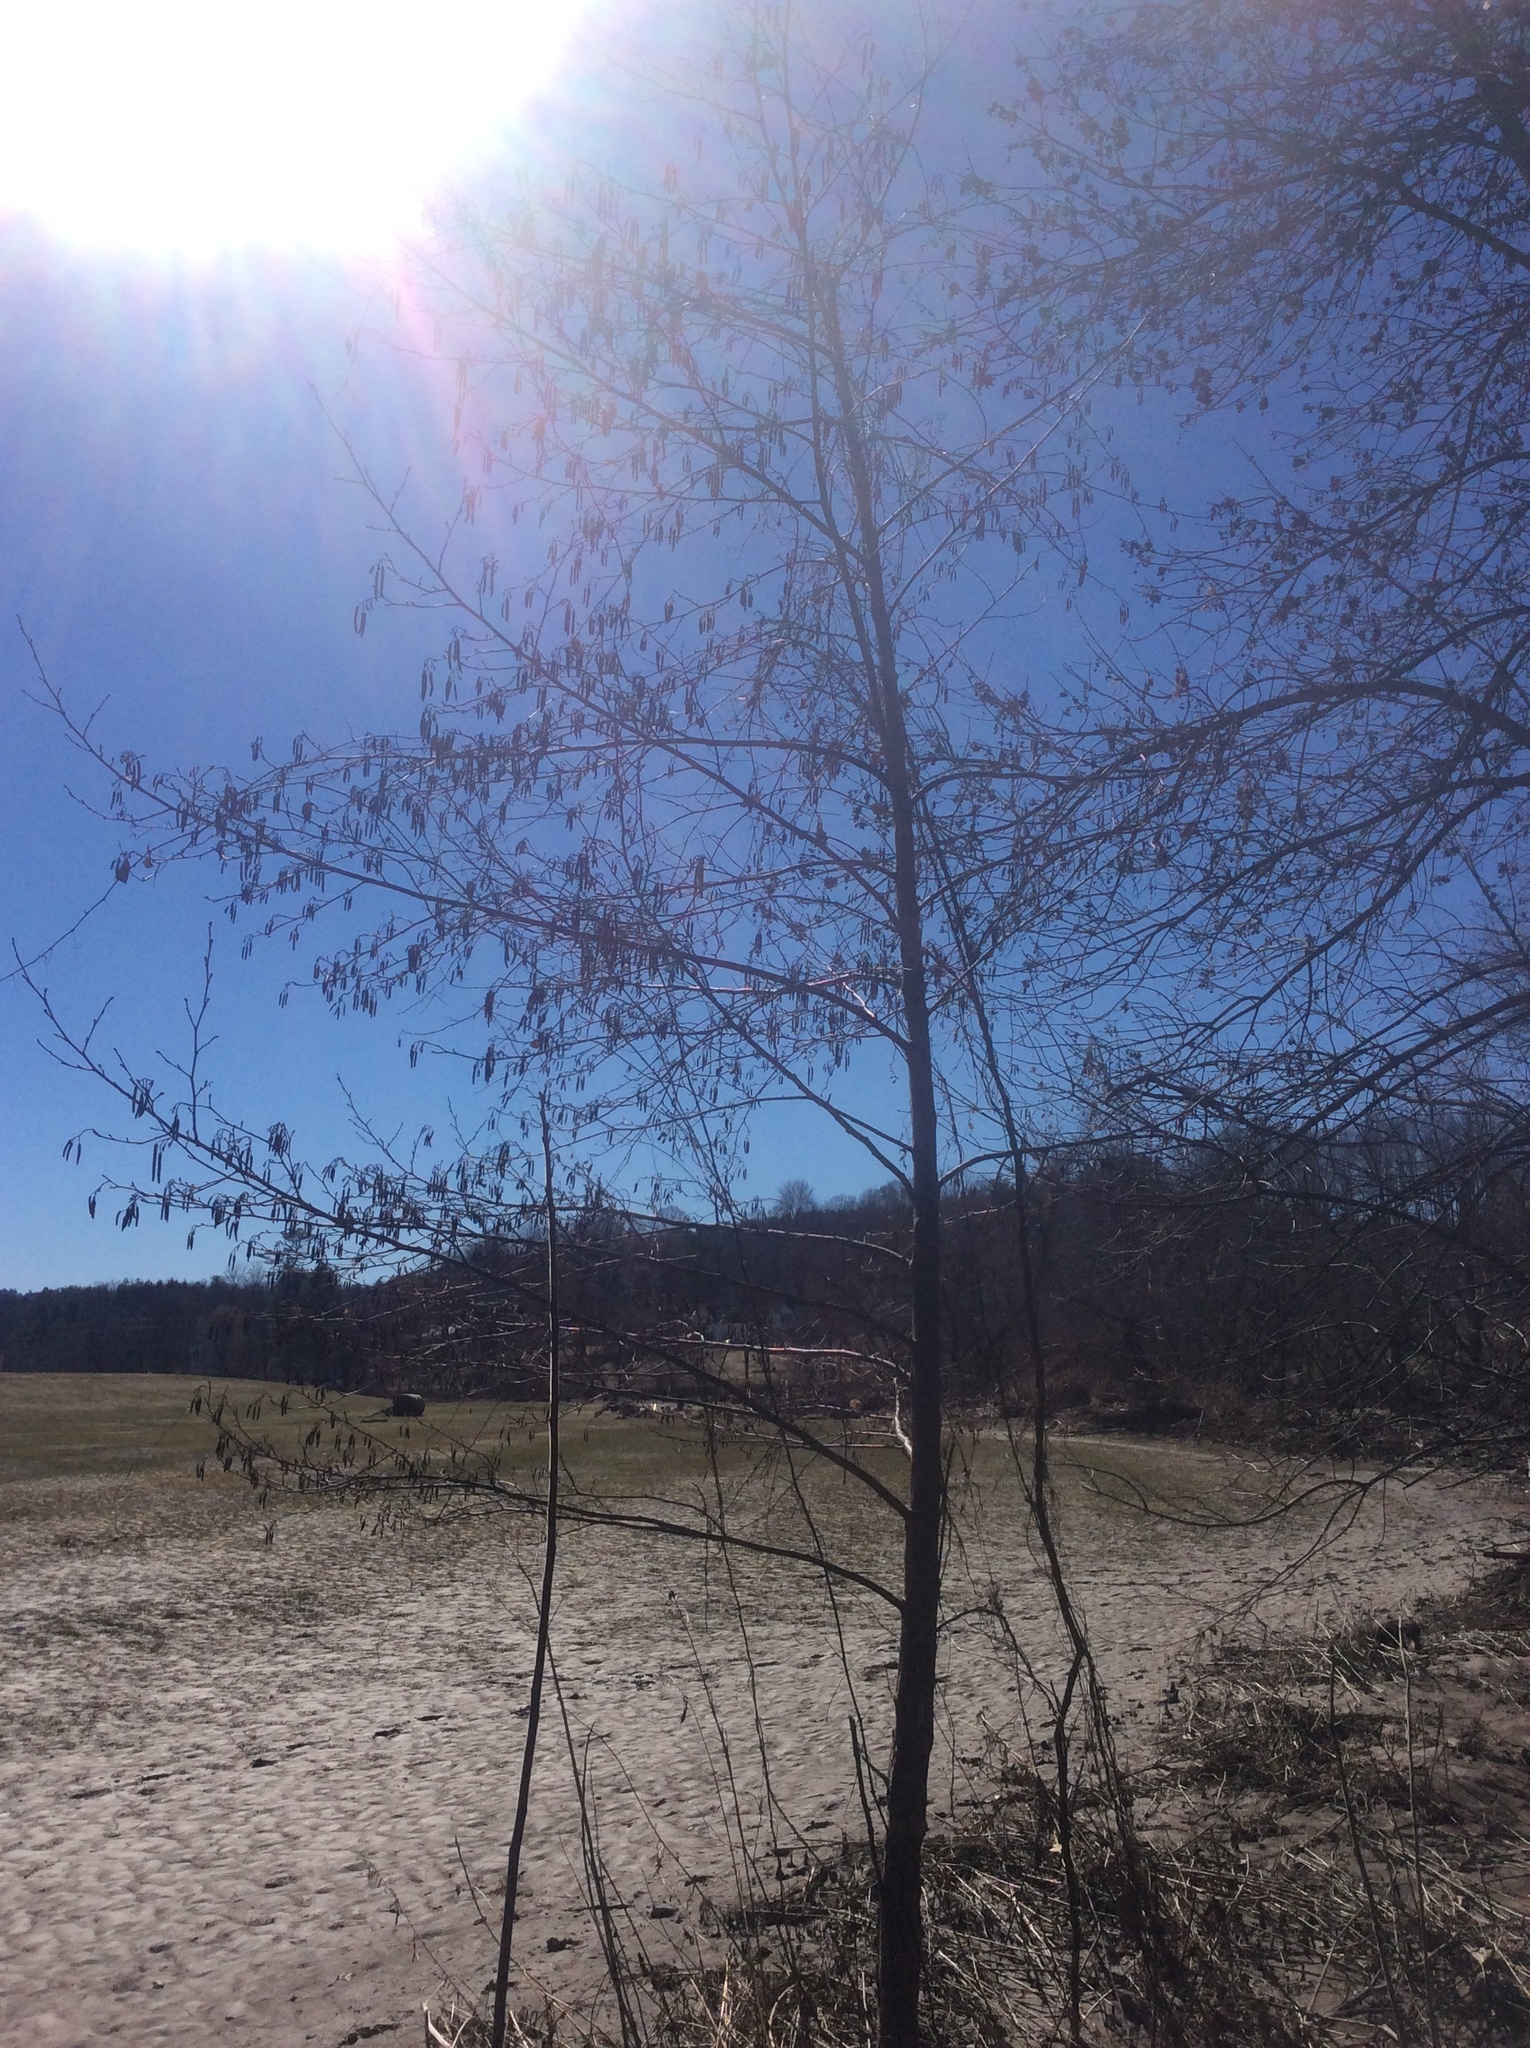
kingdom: Plantae
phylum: Tracheophyta
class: Magnoliopsida
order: Fagales
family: Betulaceae
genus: Alnus
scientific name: Alnus glutinosa
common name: Black alder
